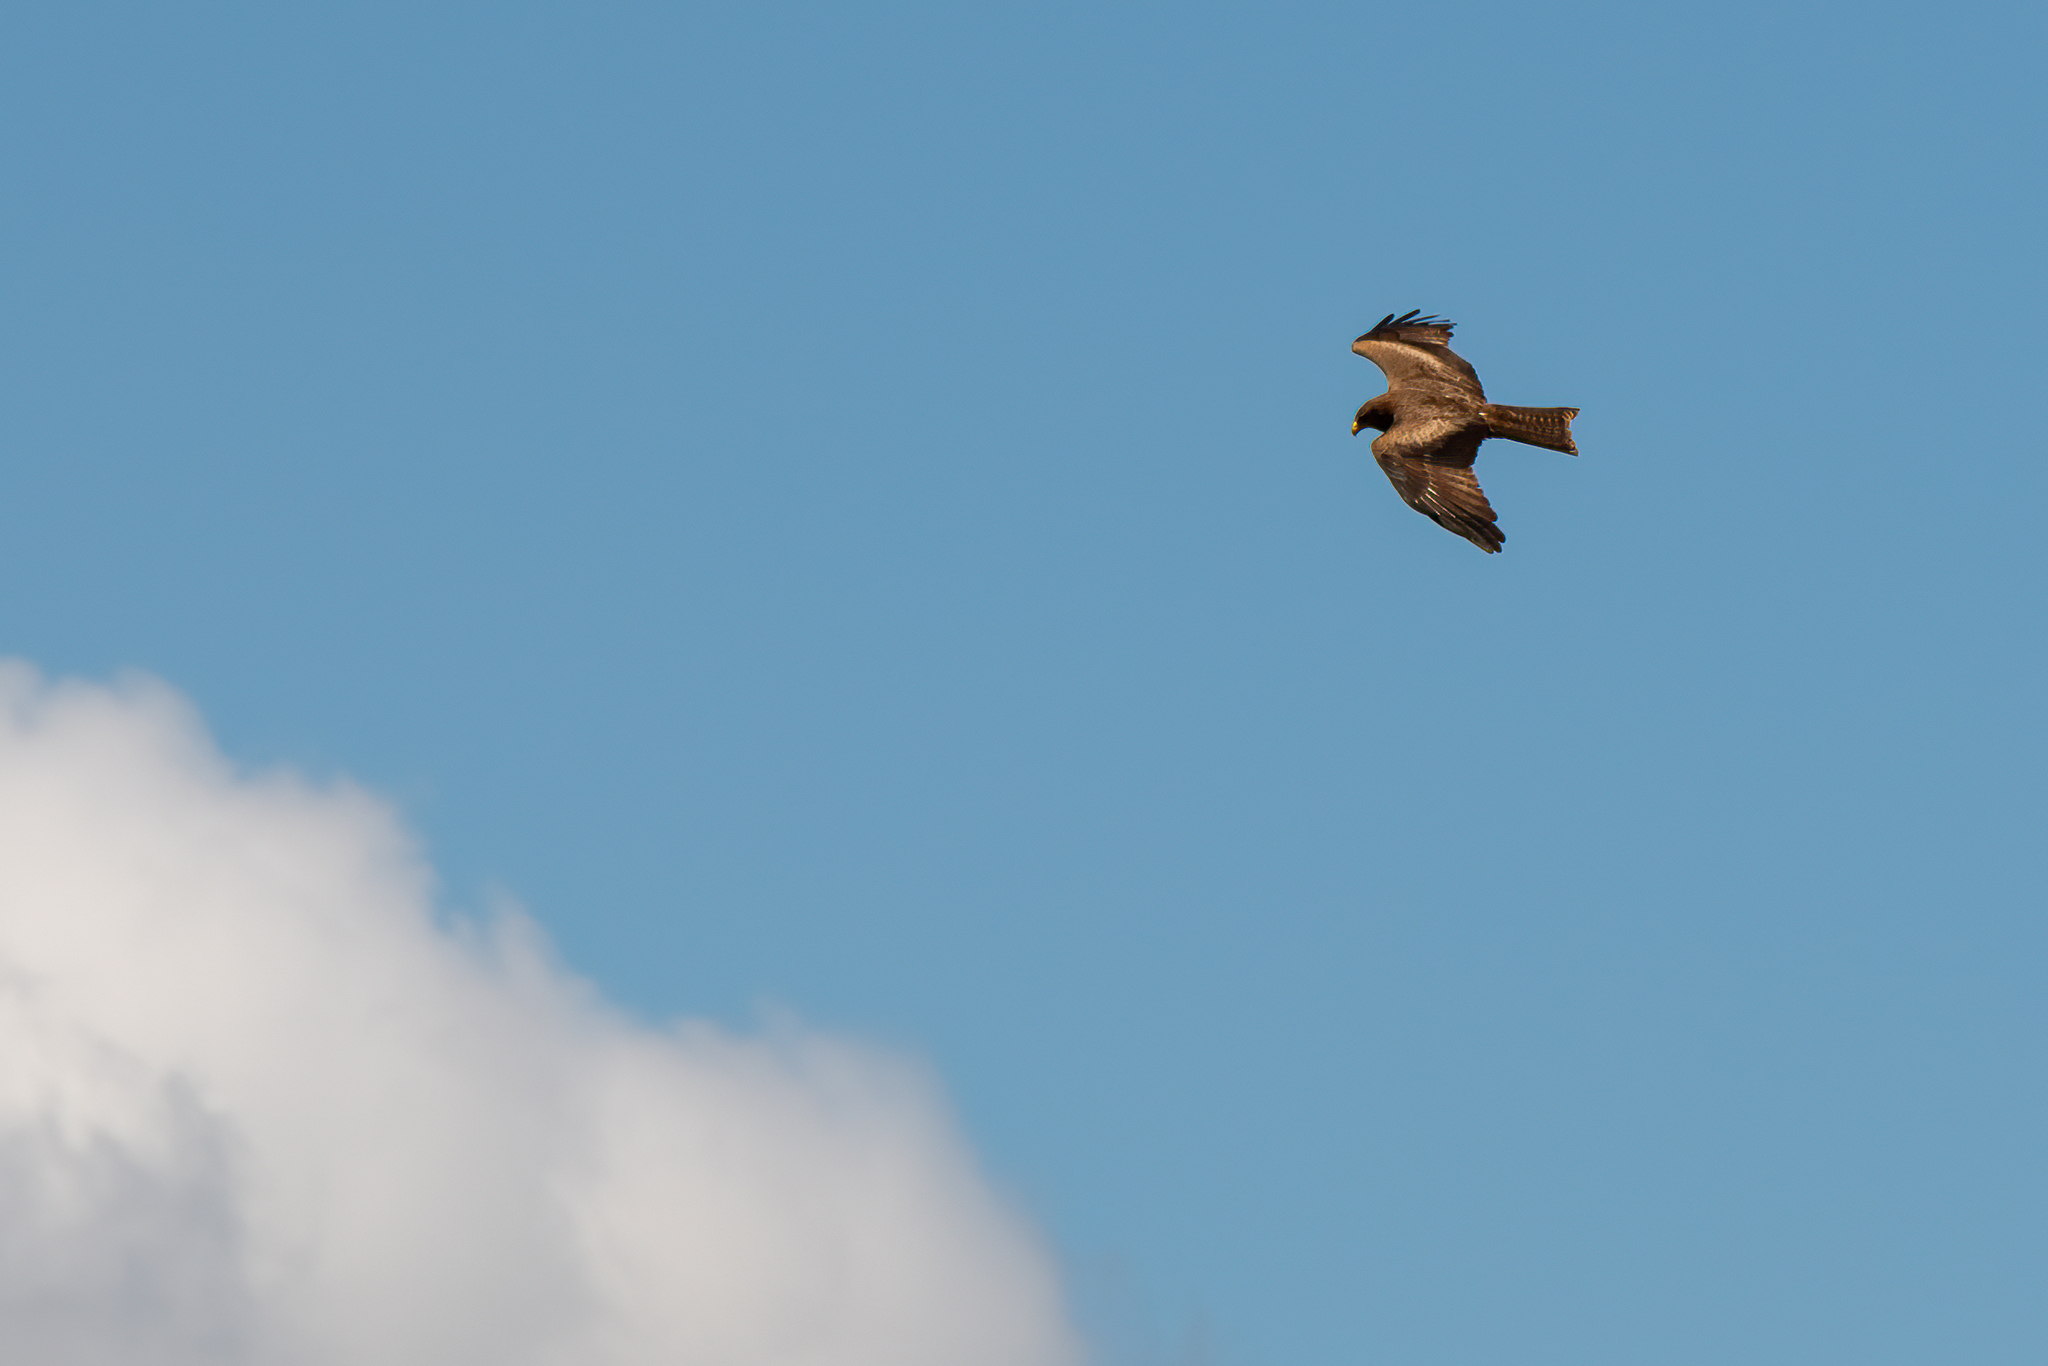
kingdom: Animalia
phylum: Chordata
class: Aves
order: Accipitriformes
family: Accipitridae
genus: Milvus
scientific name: Milvus migrans
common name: Black kite
